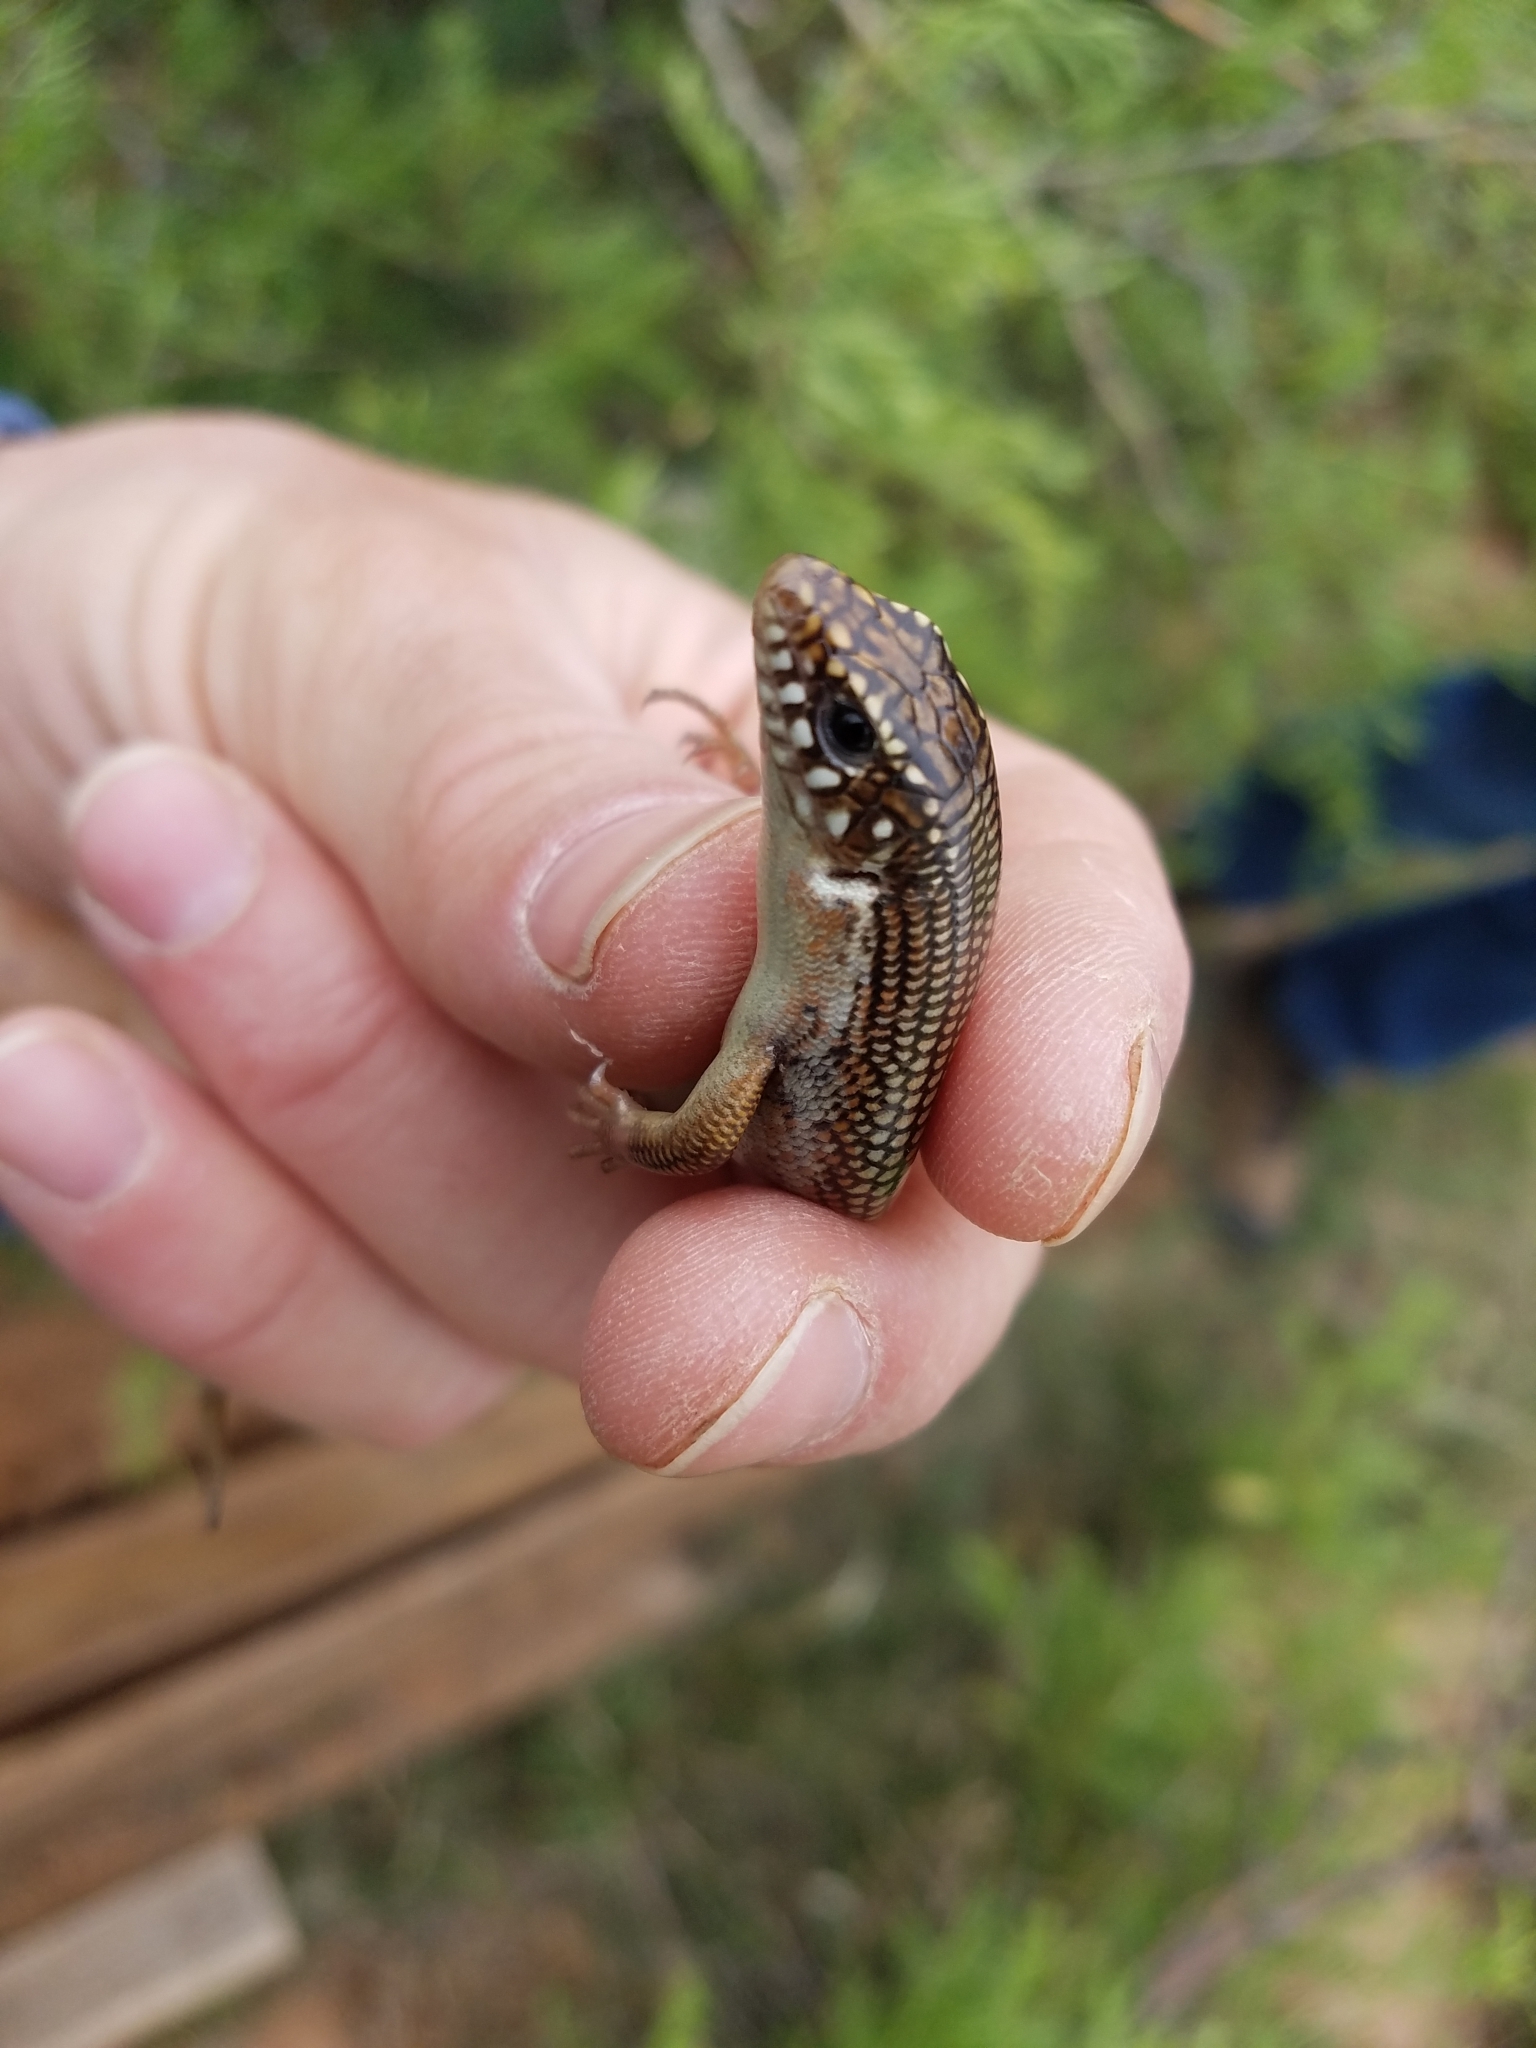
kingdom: Animalia
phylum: Chordata
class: Squamata
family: Scincidae
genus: Plestiodon
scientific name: Plestiodon obsoletus
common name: Great plains skink
